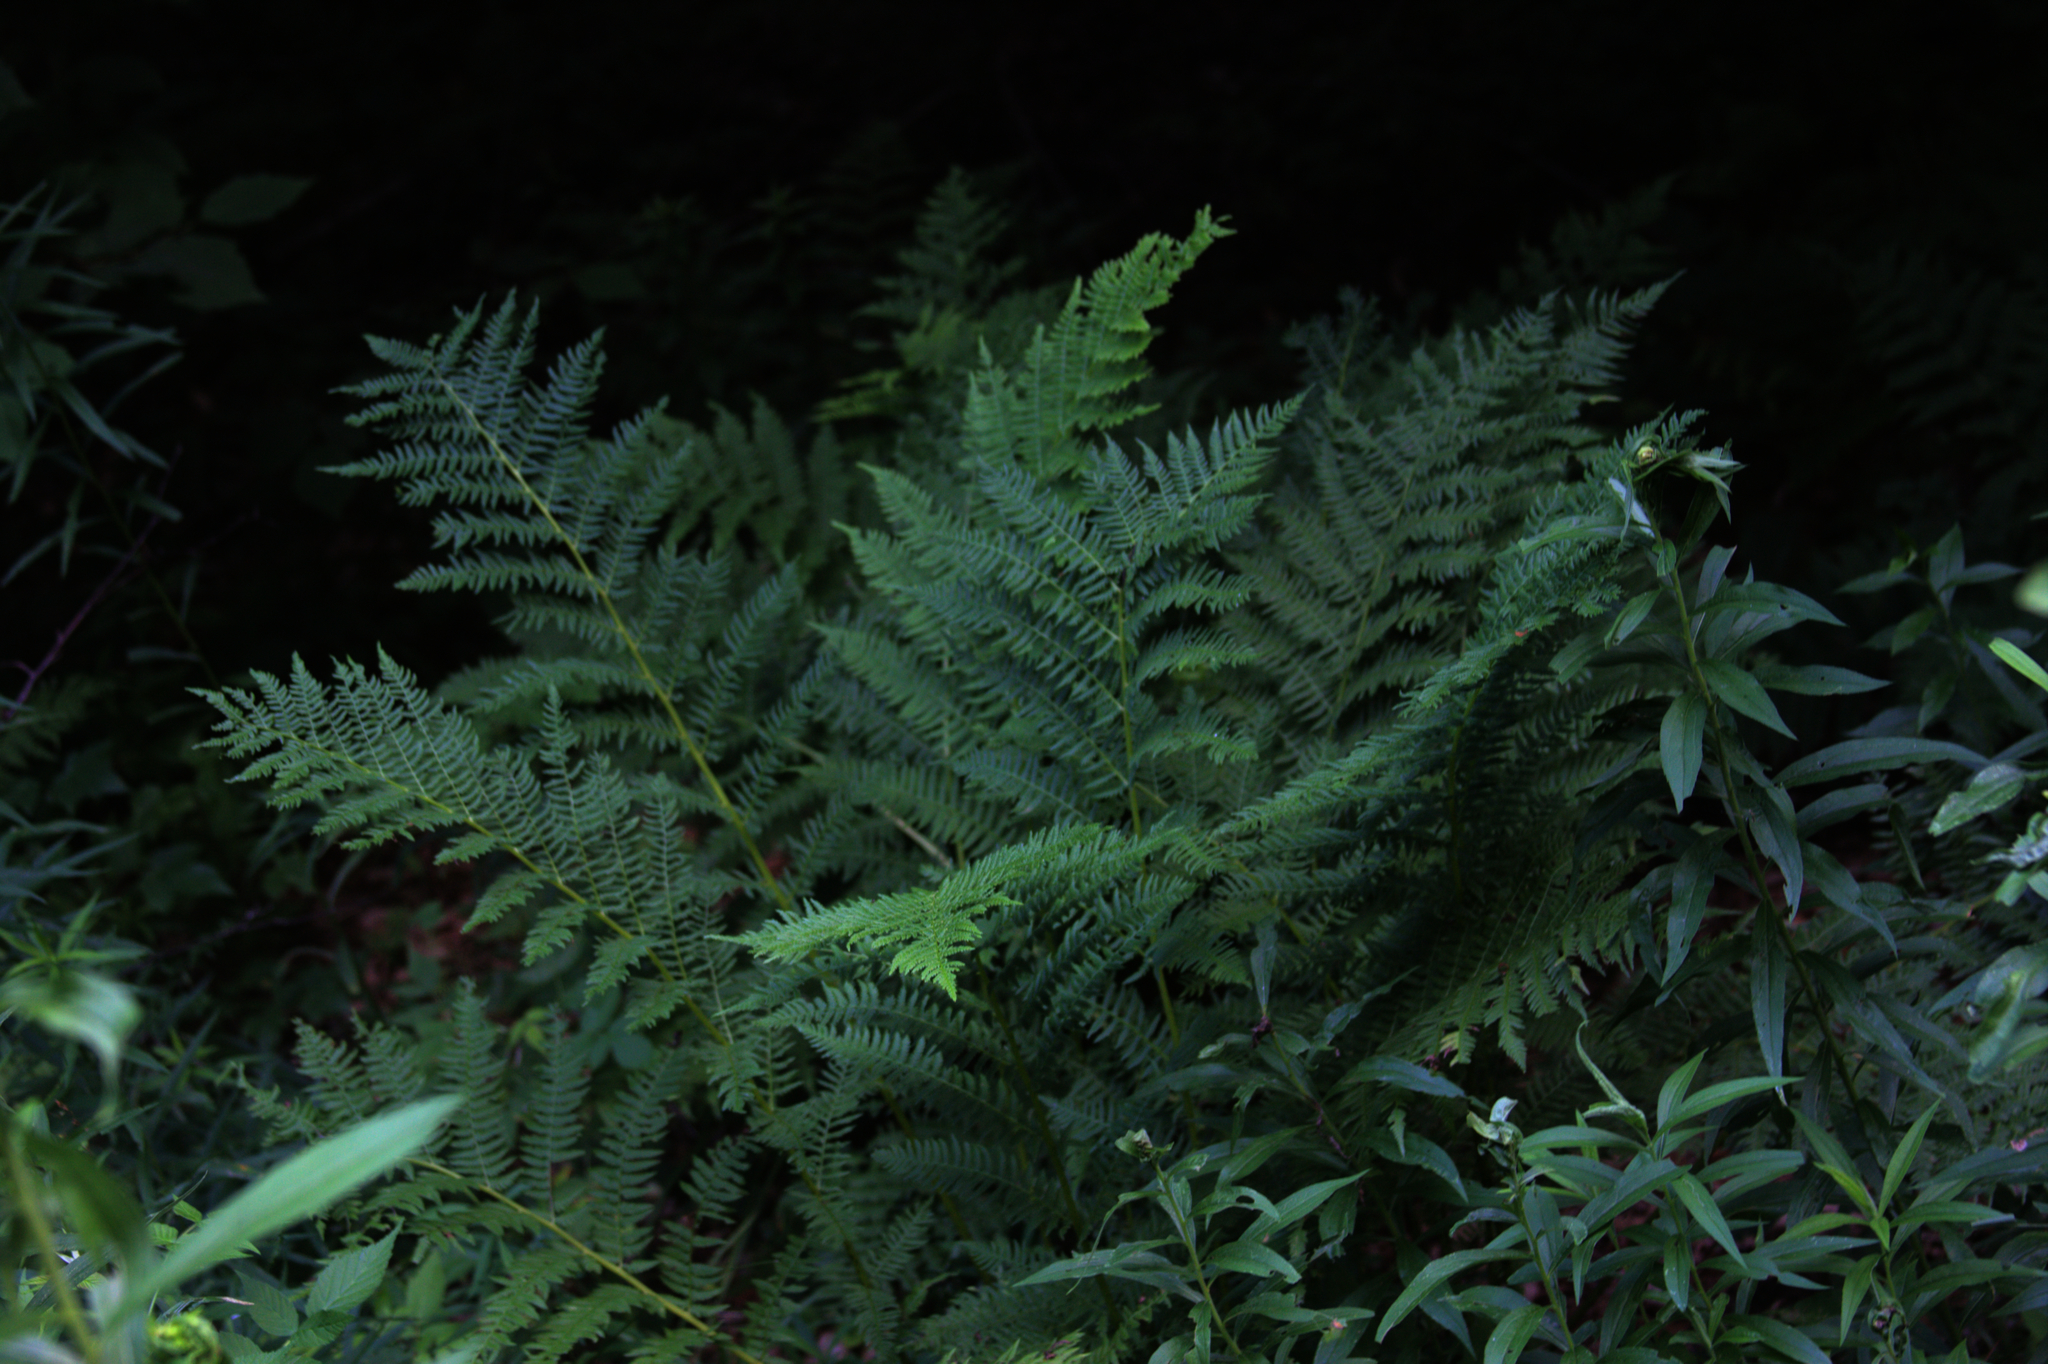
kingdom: Plantae
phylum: Tracheophyta
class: Polypodiopsida
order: Polypodiales
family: Athyriaceae
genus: Athyrium
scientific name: Athyrium angustum
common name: Northern lady fern
